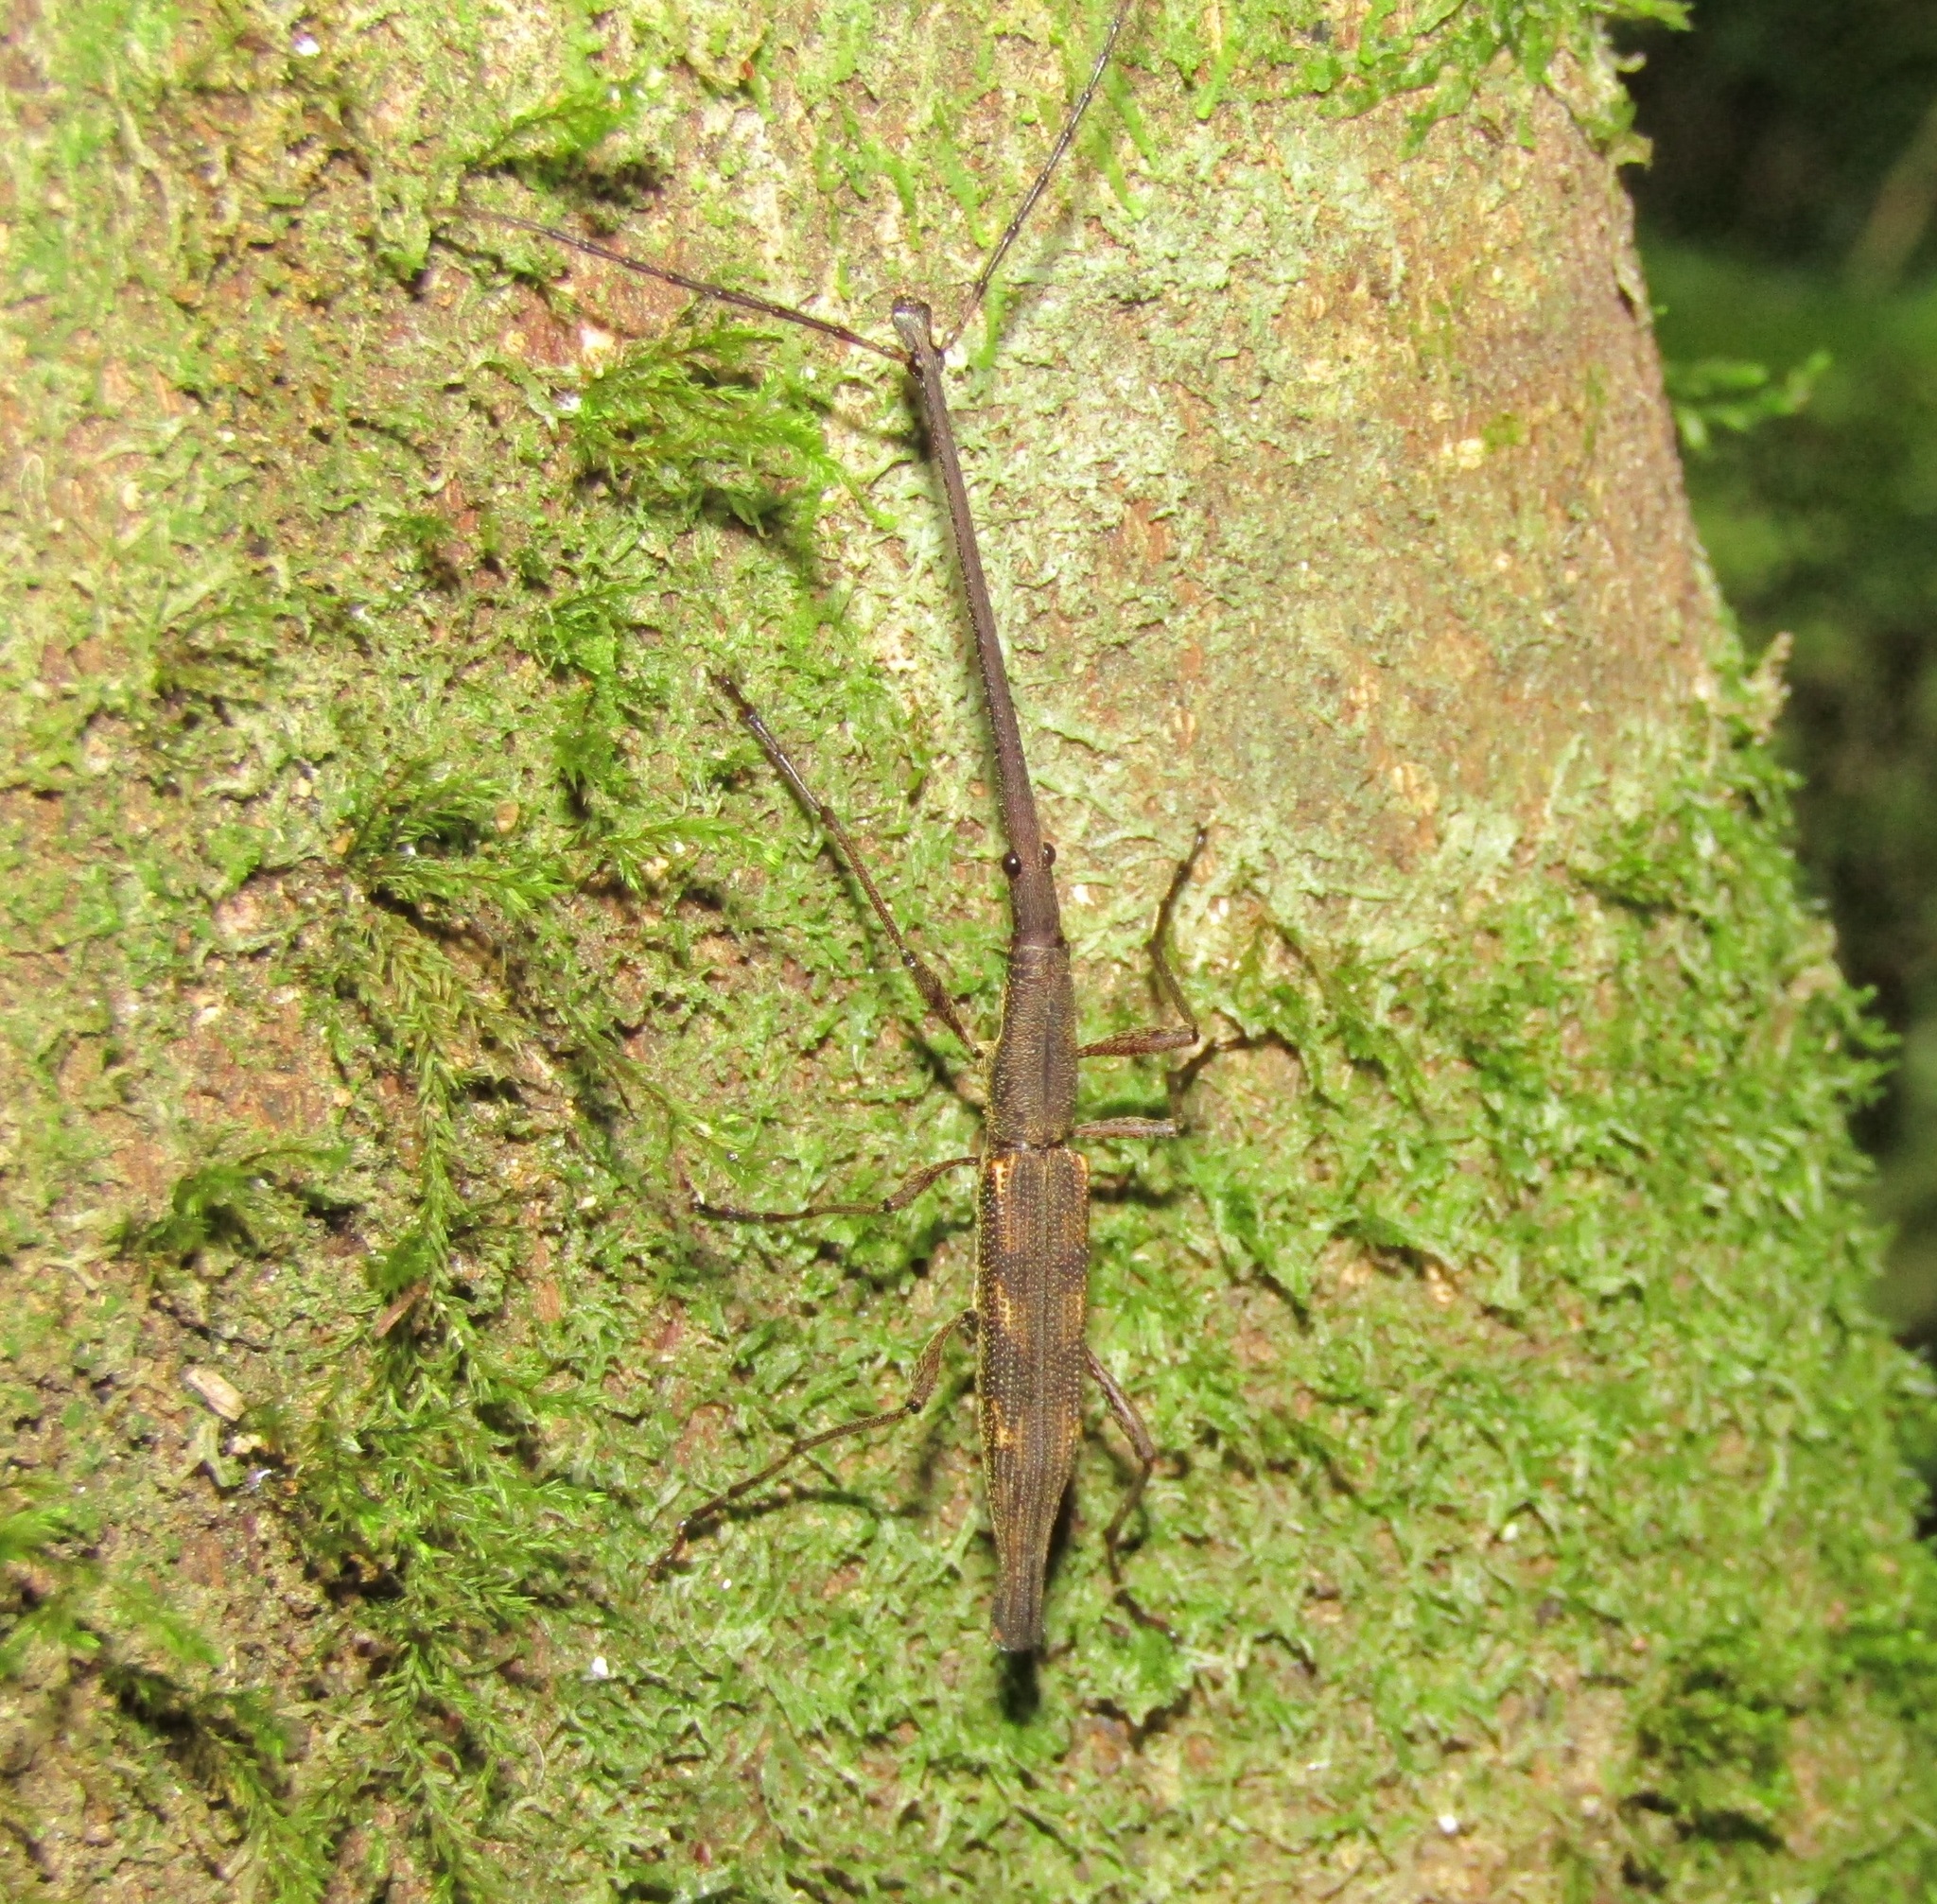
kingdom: Animalia
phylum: Arthropoda
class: Insecta
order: Coleoptera
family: Brentidae
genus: Lasiorhynchus
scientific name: Lasiorhynchus barbicornis
